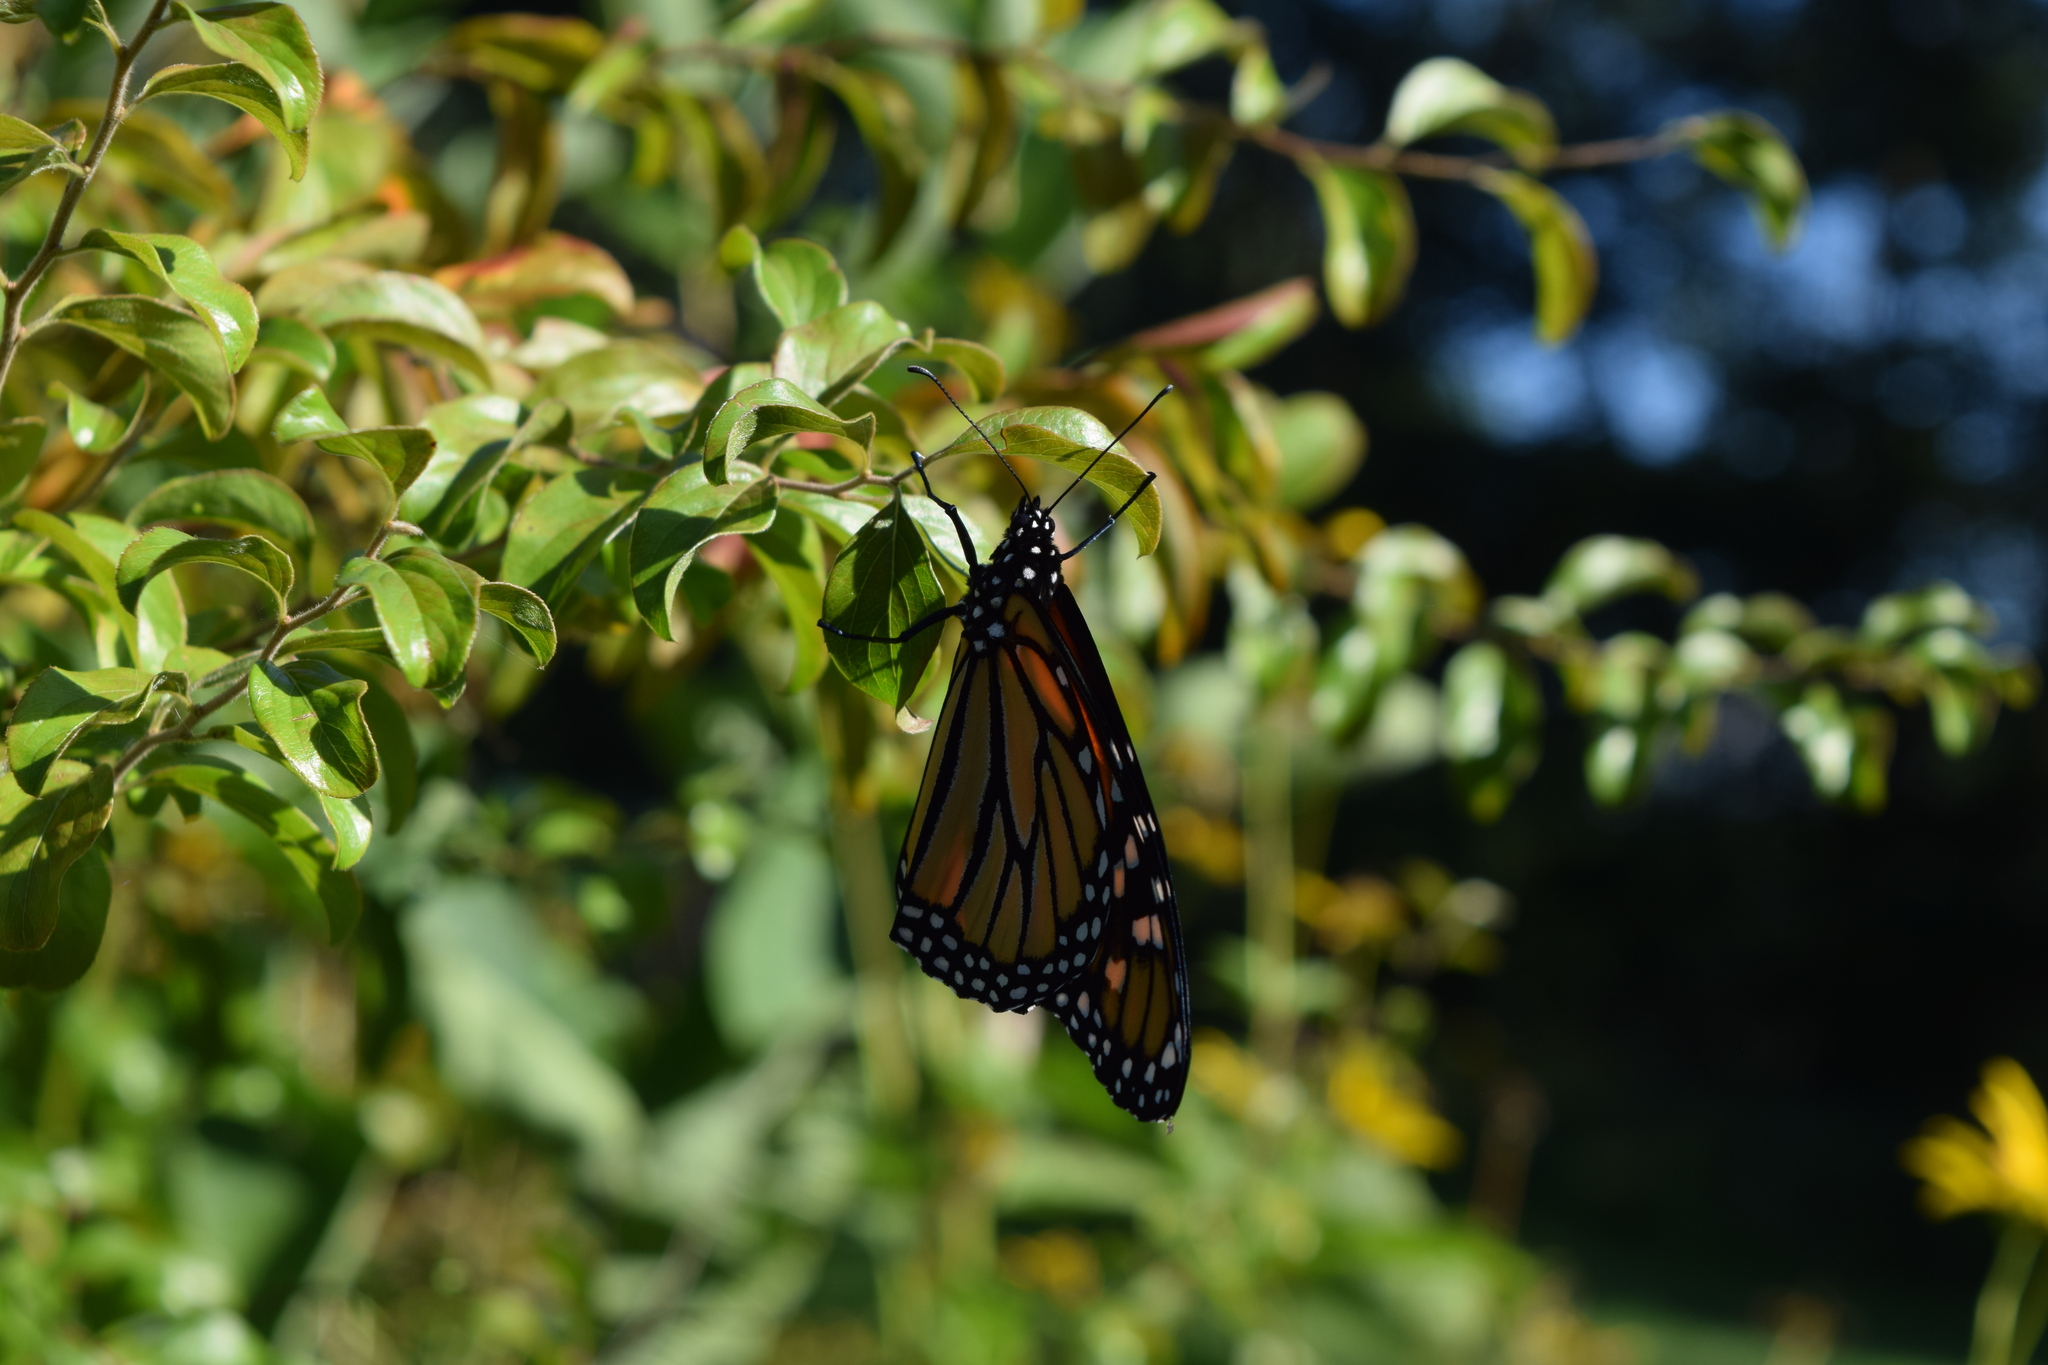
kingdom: Animalia
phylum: Arthropoda
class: Insecta
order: Lepidoptera
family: Nymphalidae
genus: Danaus
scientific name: Danaus plexippus
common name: Monarch
